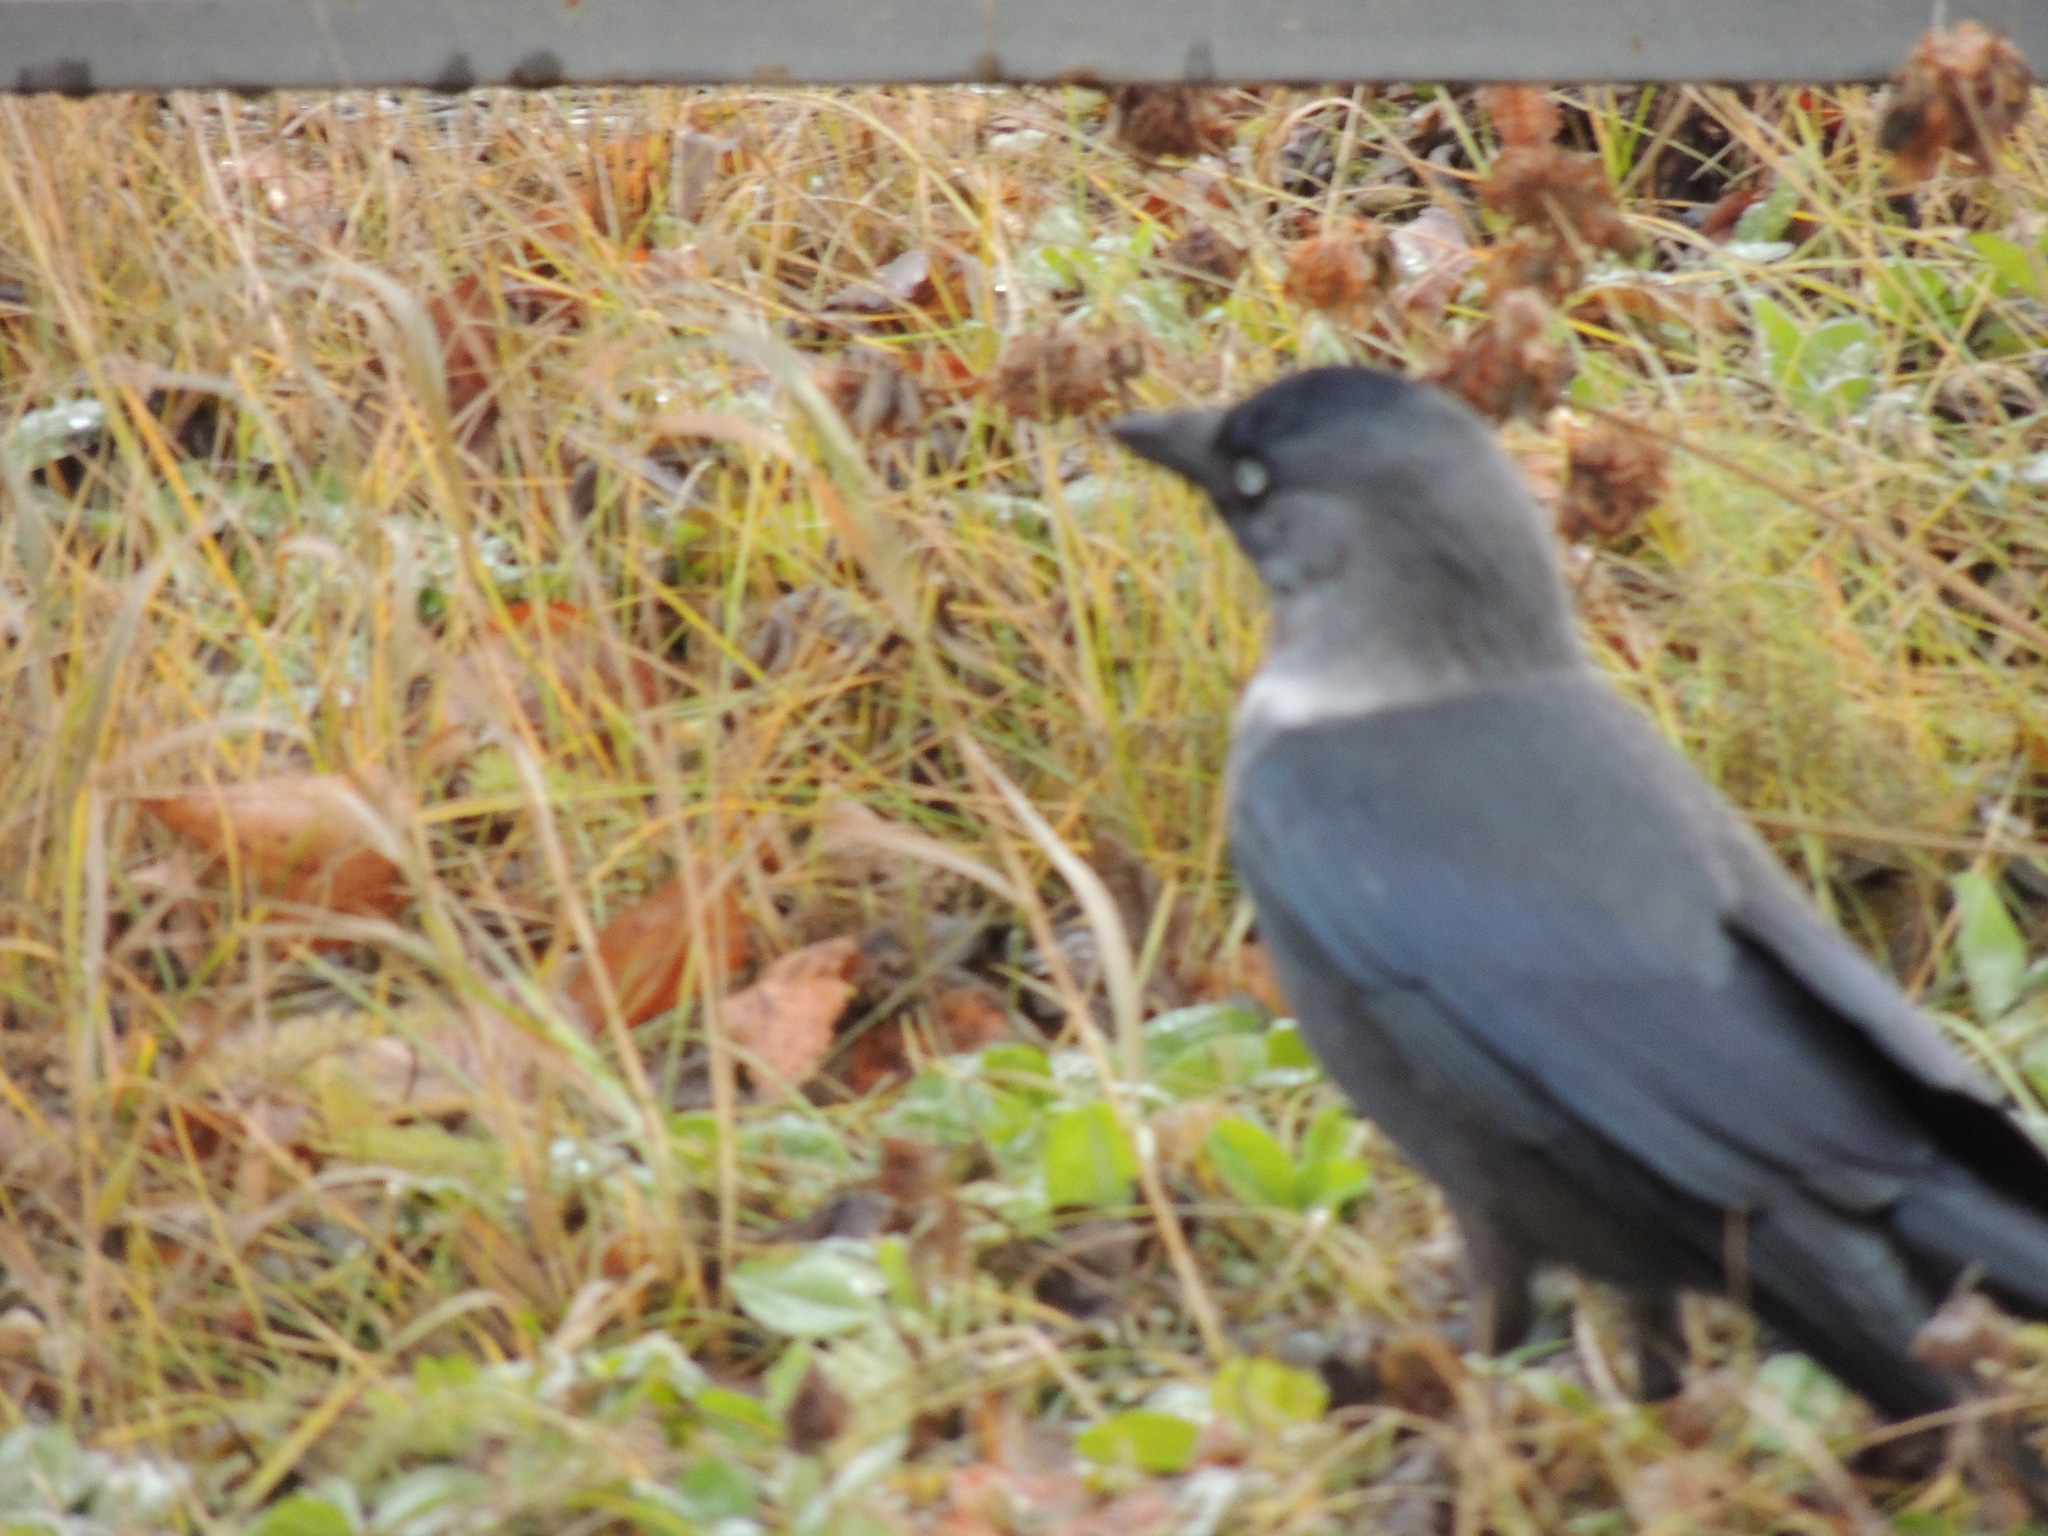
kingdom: Animalia
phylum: Chordata
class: Aves
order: Passeriformes
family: Corvidae
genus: Coloeus
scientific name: Coloeus monedula
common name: Western jackdaw
